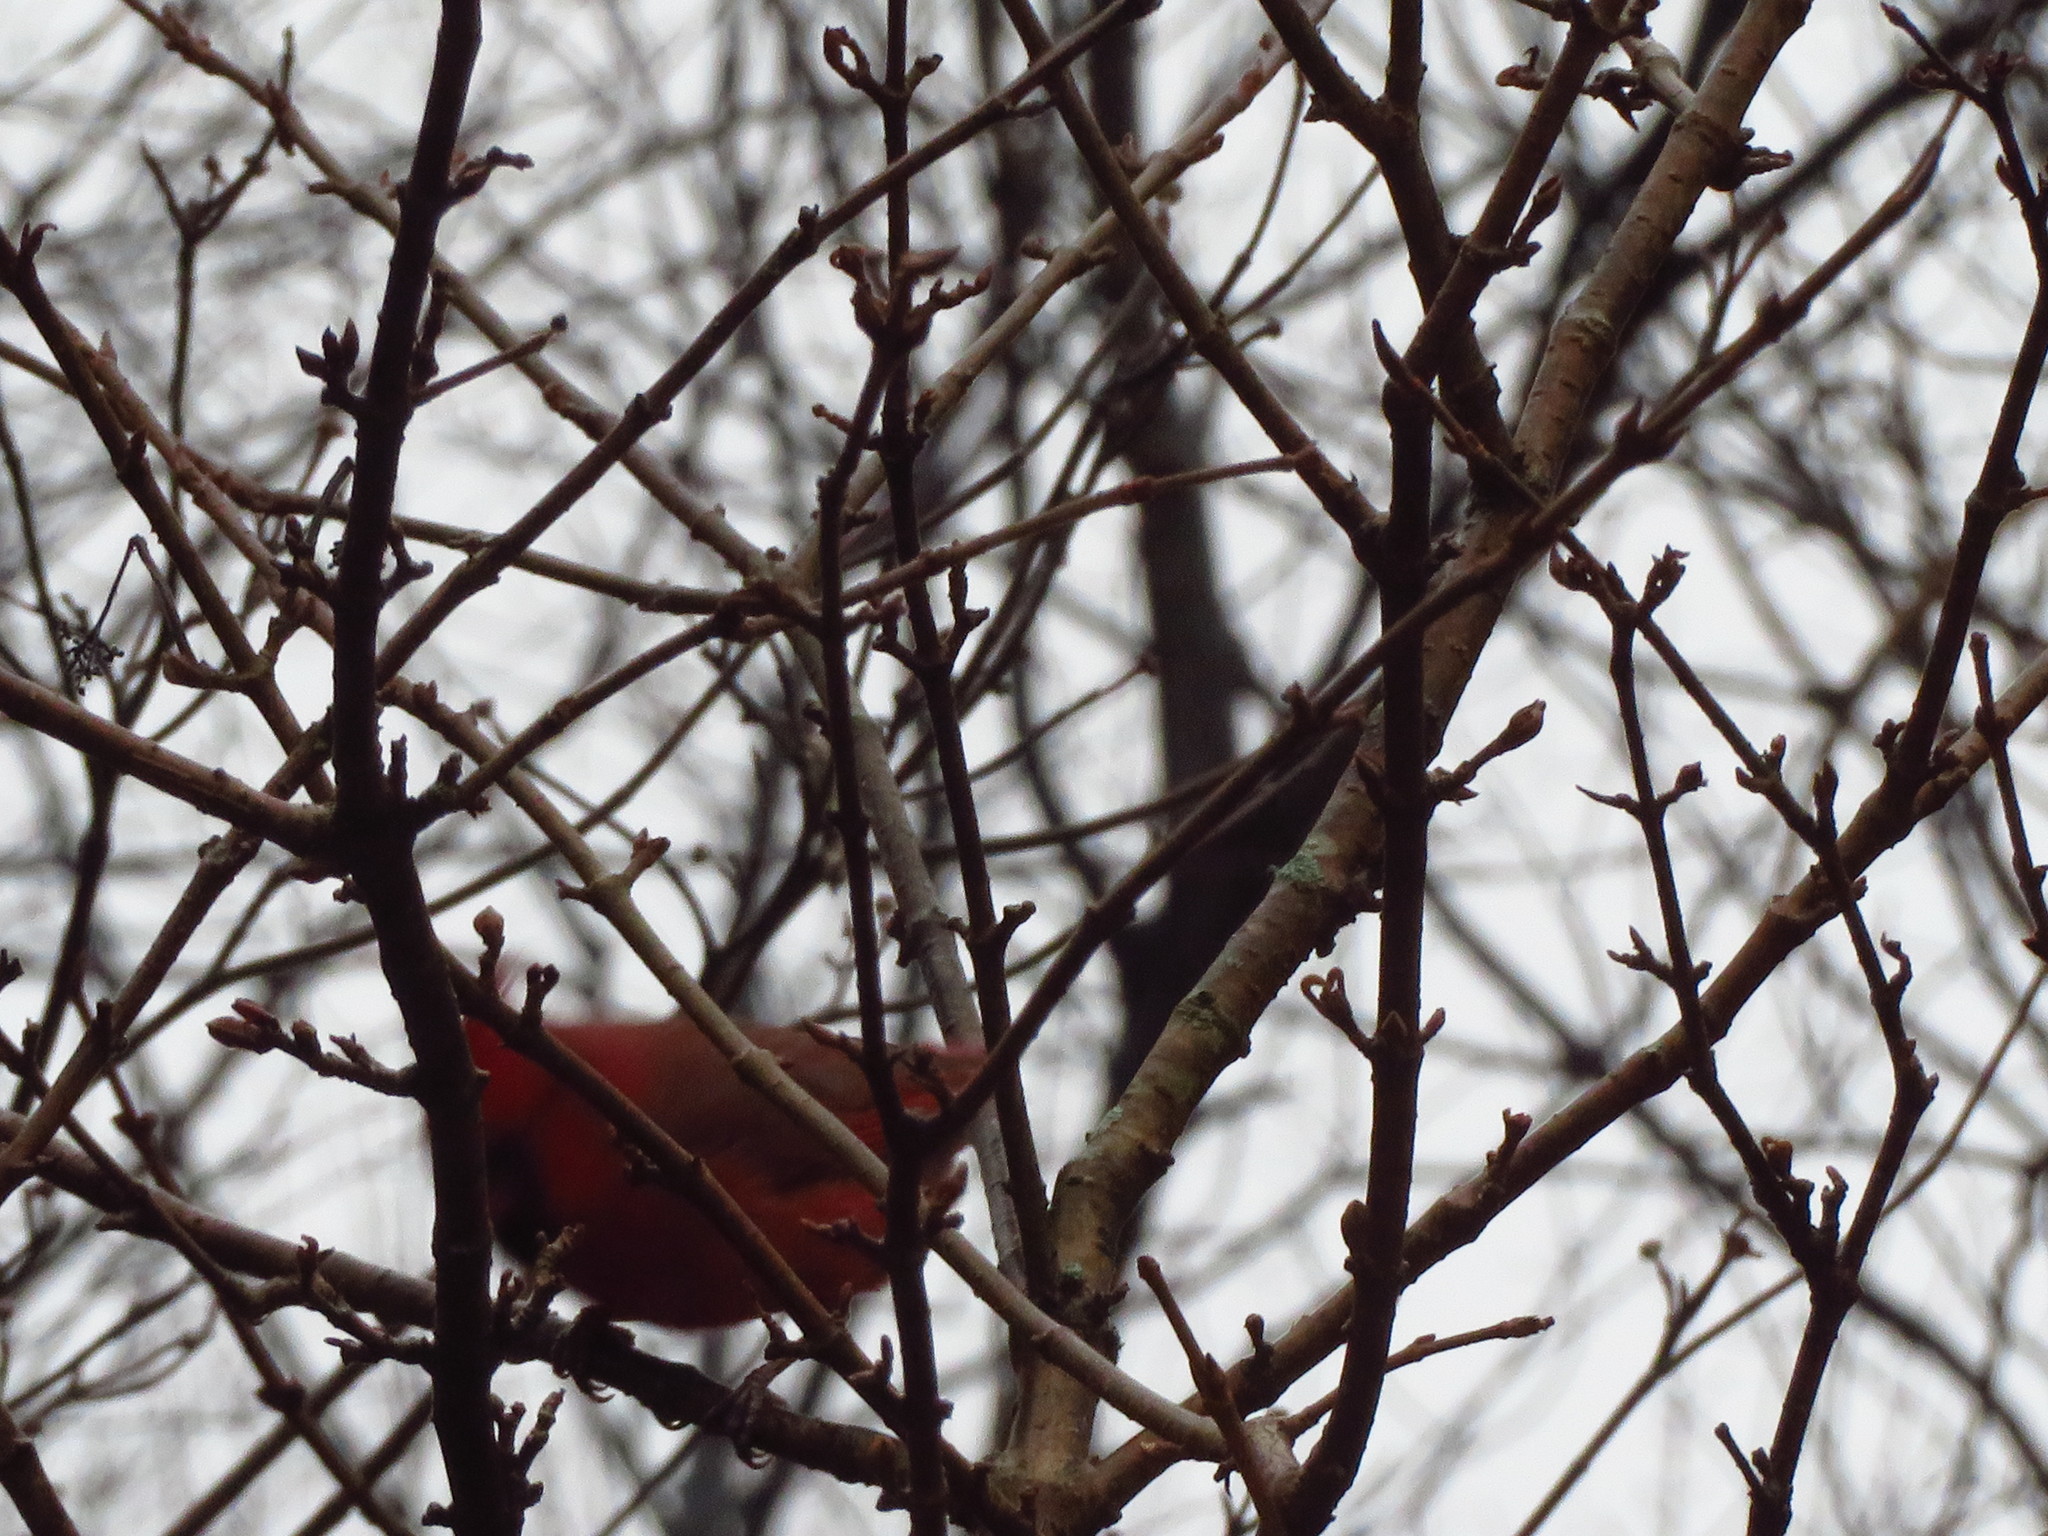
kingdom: Animalia
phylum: Chordata
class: Aves
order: Passeriformes
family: Cardinalidae
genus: Cardinalis
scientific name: Cardinalis cardinalis
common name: Northern cardinal
